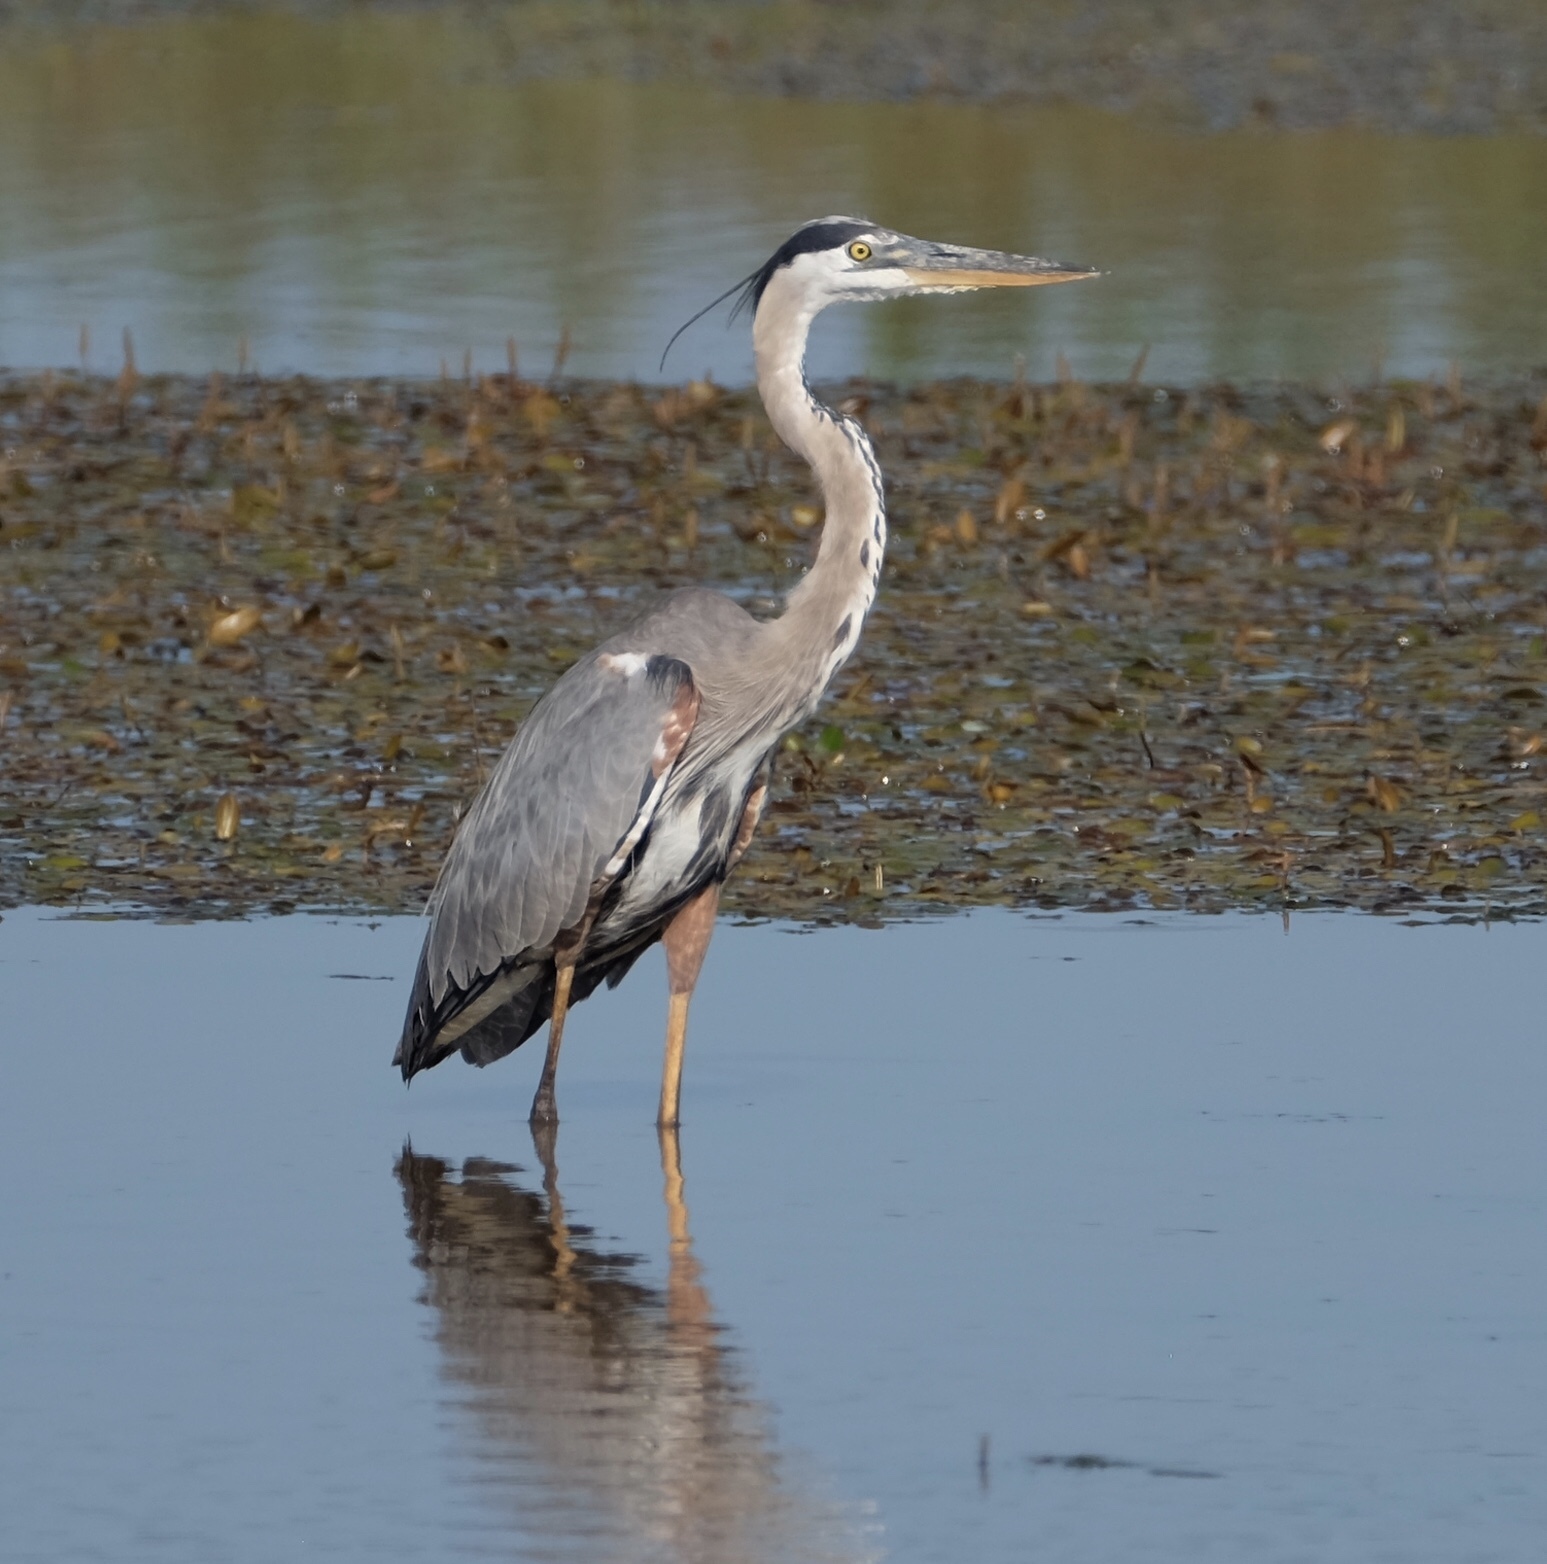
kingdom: Animalia
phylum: Chordata
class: Aves
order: Pelecaniformes
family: Ardeidae
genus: Ardea
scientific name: Ardea herodias
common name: Great blue heron
